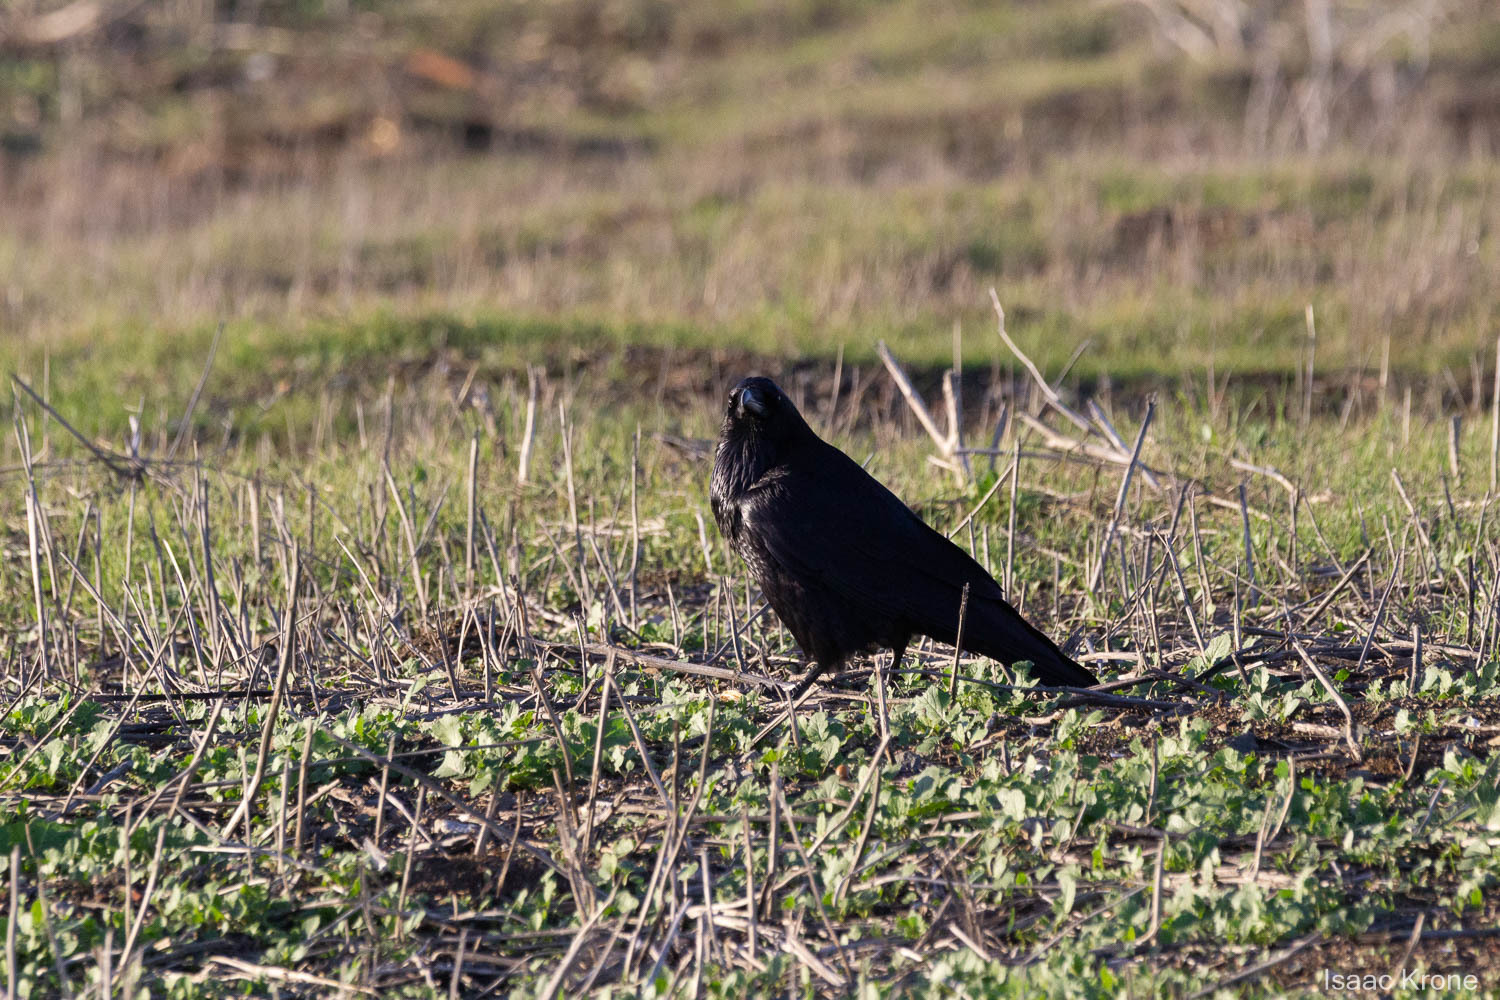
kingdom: Animalia
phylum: Chordata
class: Aves
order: Passeriformes
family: Corvidae
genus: Corvus
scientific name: Corvus corax
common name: Common raven
